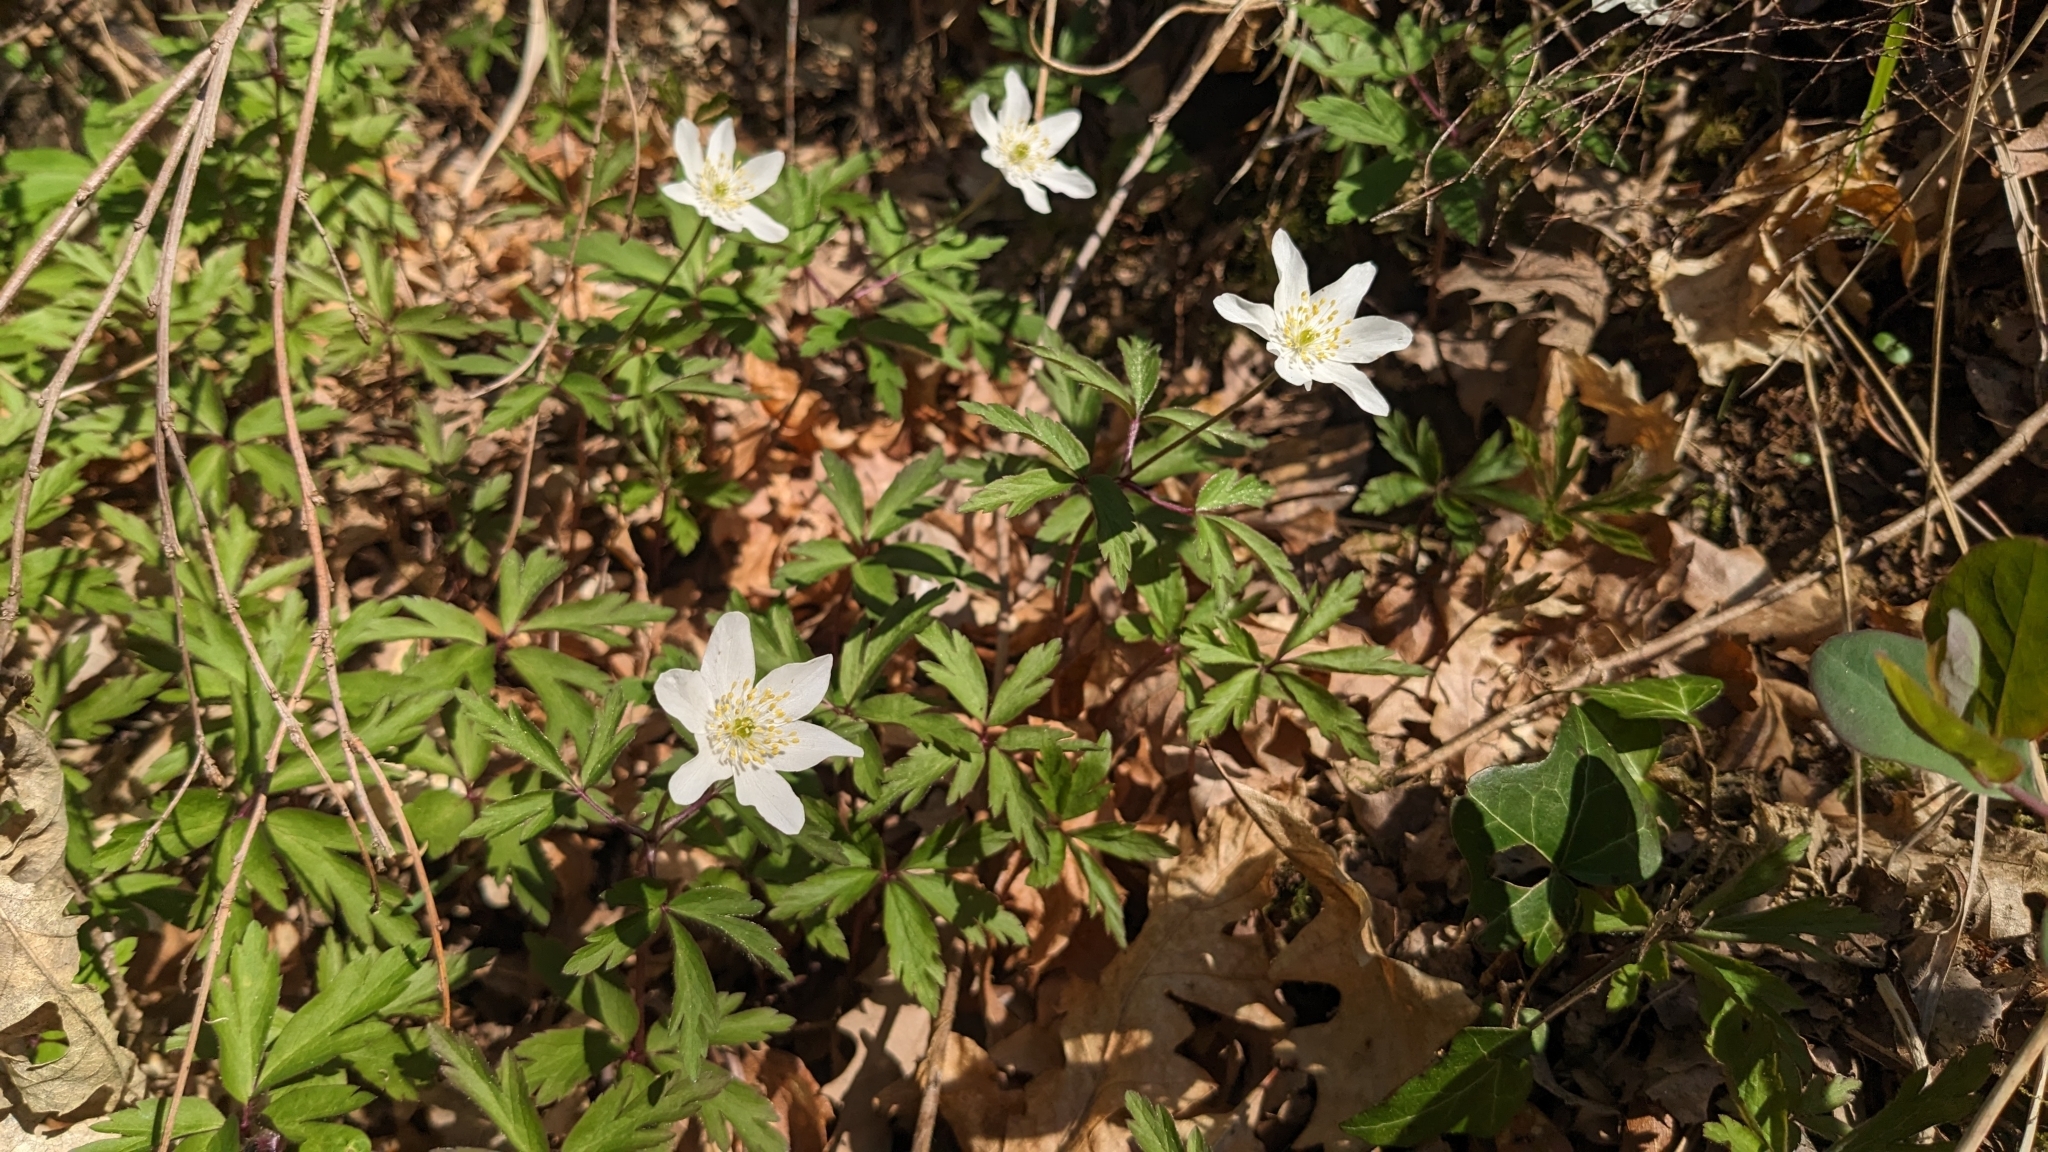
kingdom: Plantae
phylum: Tracheophyta
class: Magnoliopsida
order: Ranunculales
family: Ranunculaceae
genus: Anemone
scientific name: Anemone nemorosa
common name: Wood anemone
